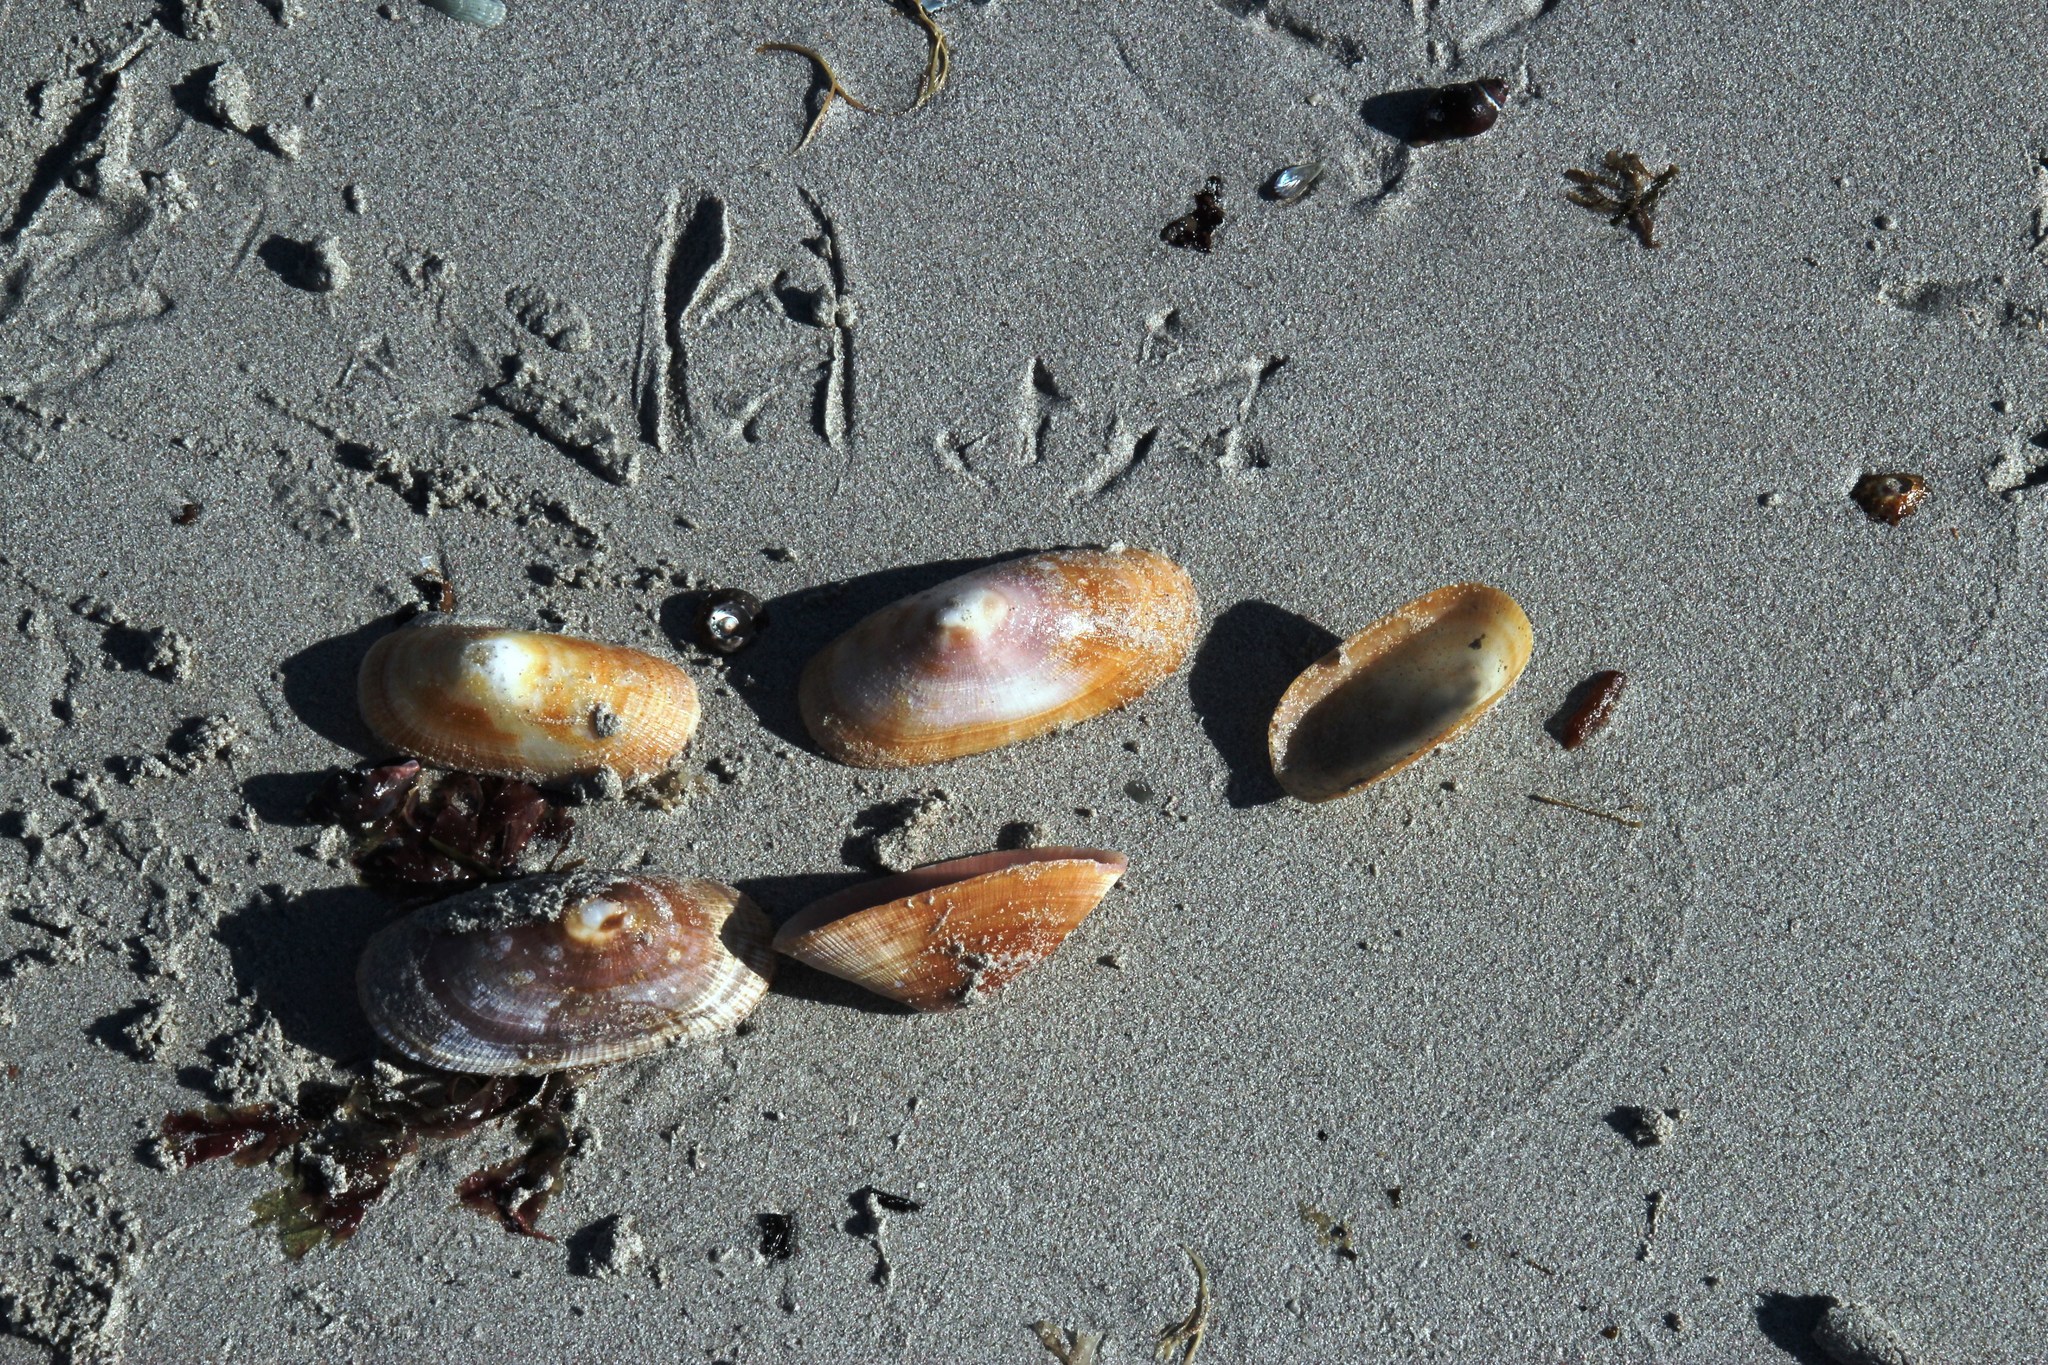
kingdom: Animalia
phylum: Mollusca
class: Gastropoda
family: Patellidae
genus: Cymbula
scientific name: Cymbula compressa
